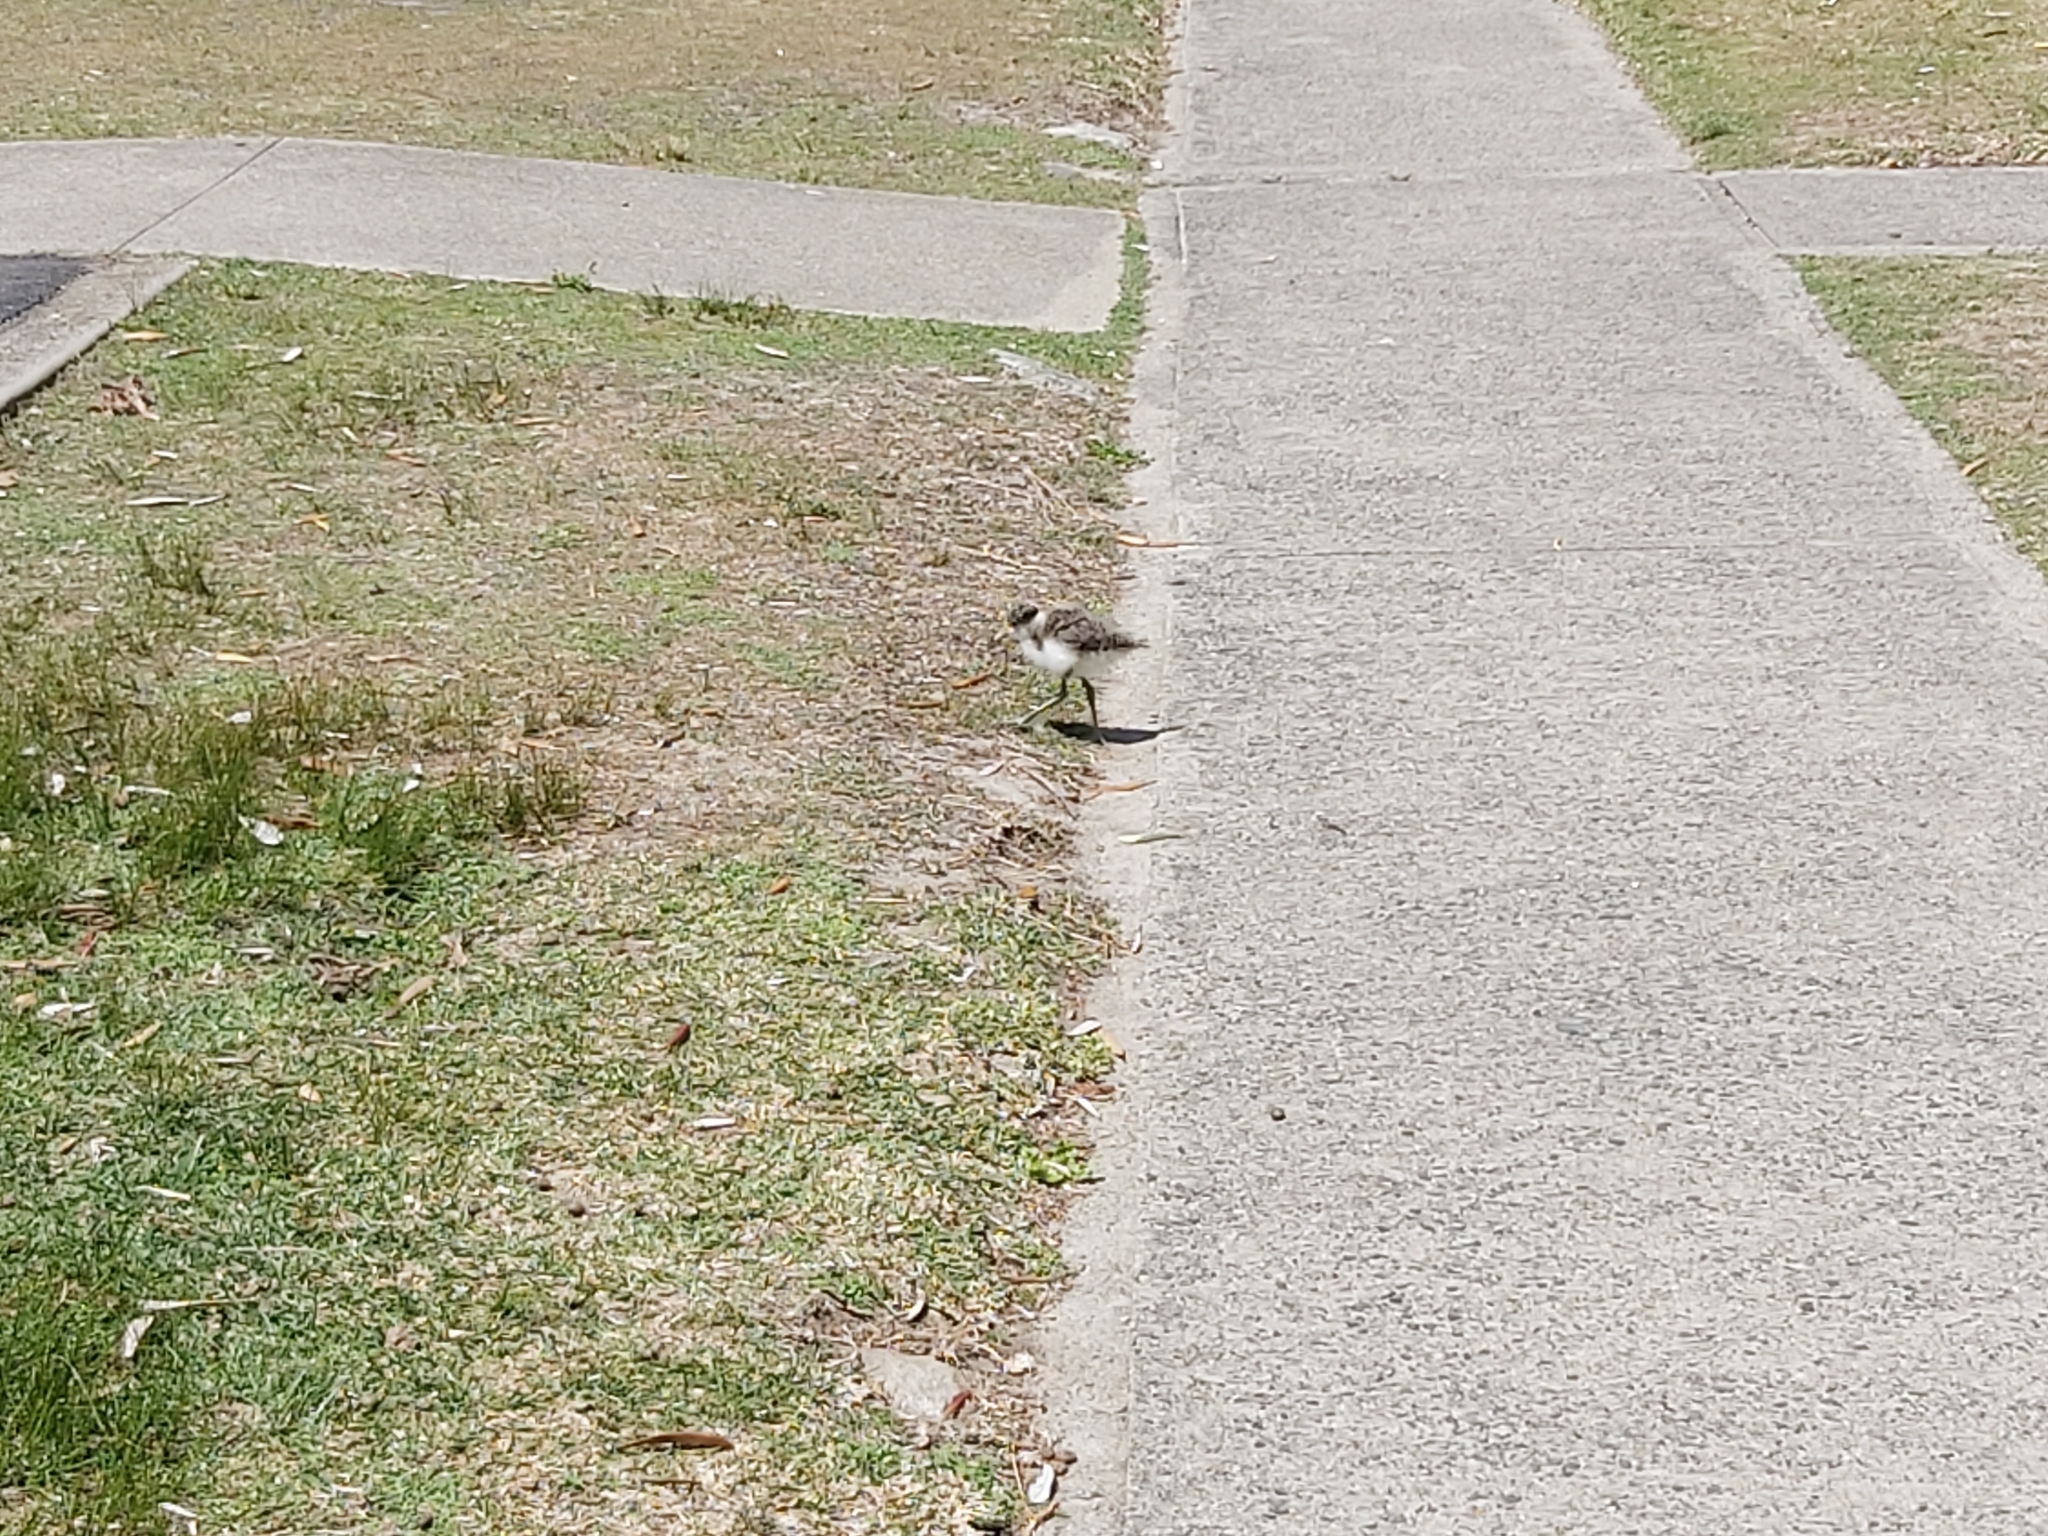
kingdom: Animalia
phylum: Chordata
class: Aves
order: Charadriiformes
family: Charadriidae
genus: Vanellus
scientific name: Vanellus miles
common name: Masked lapwing
